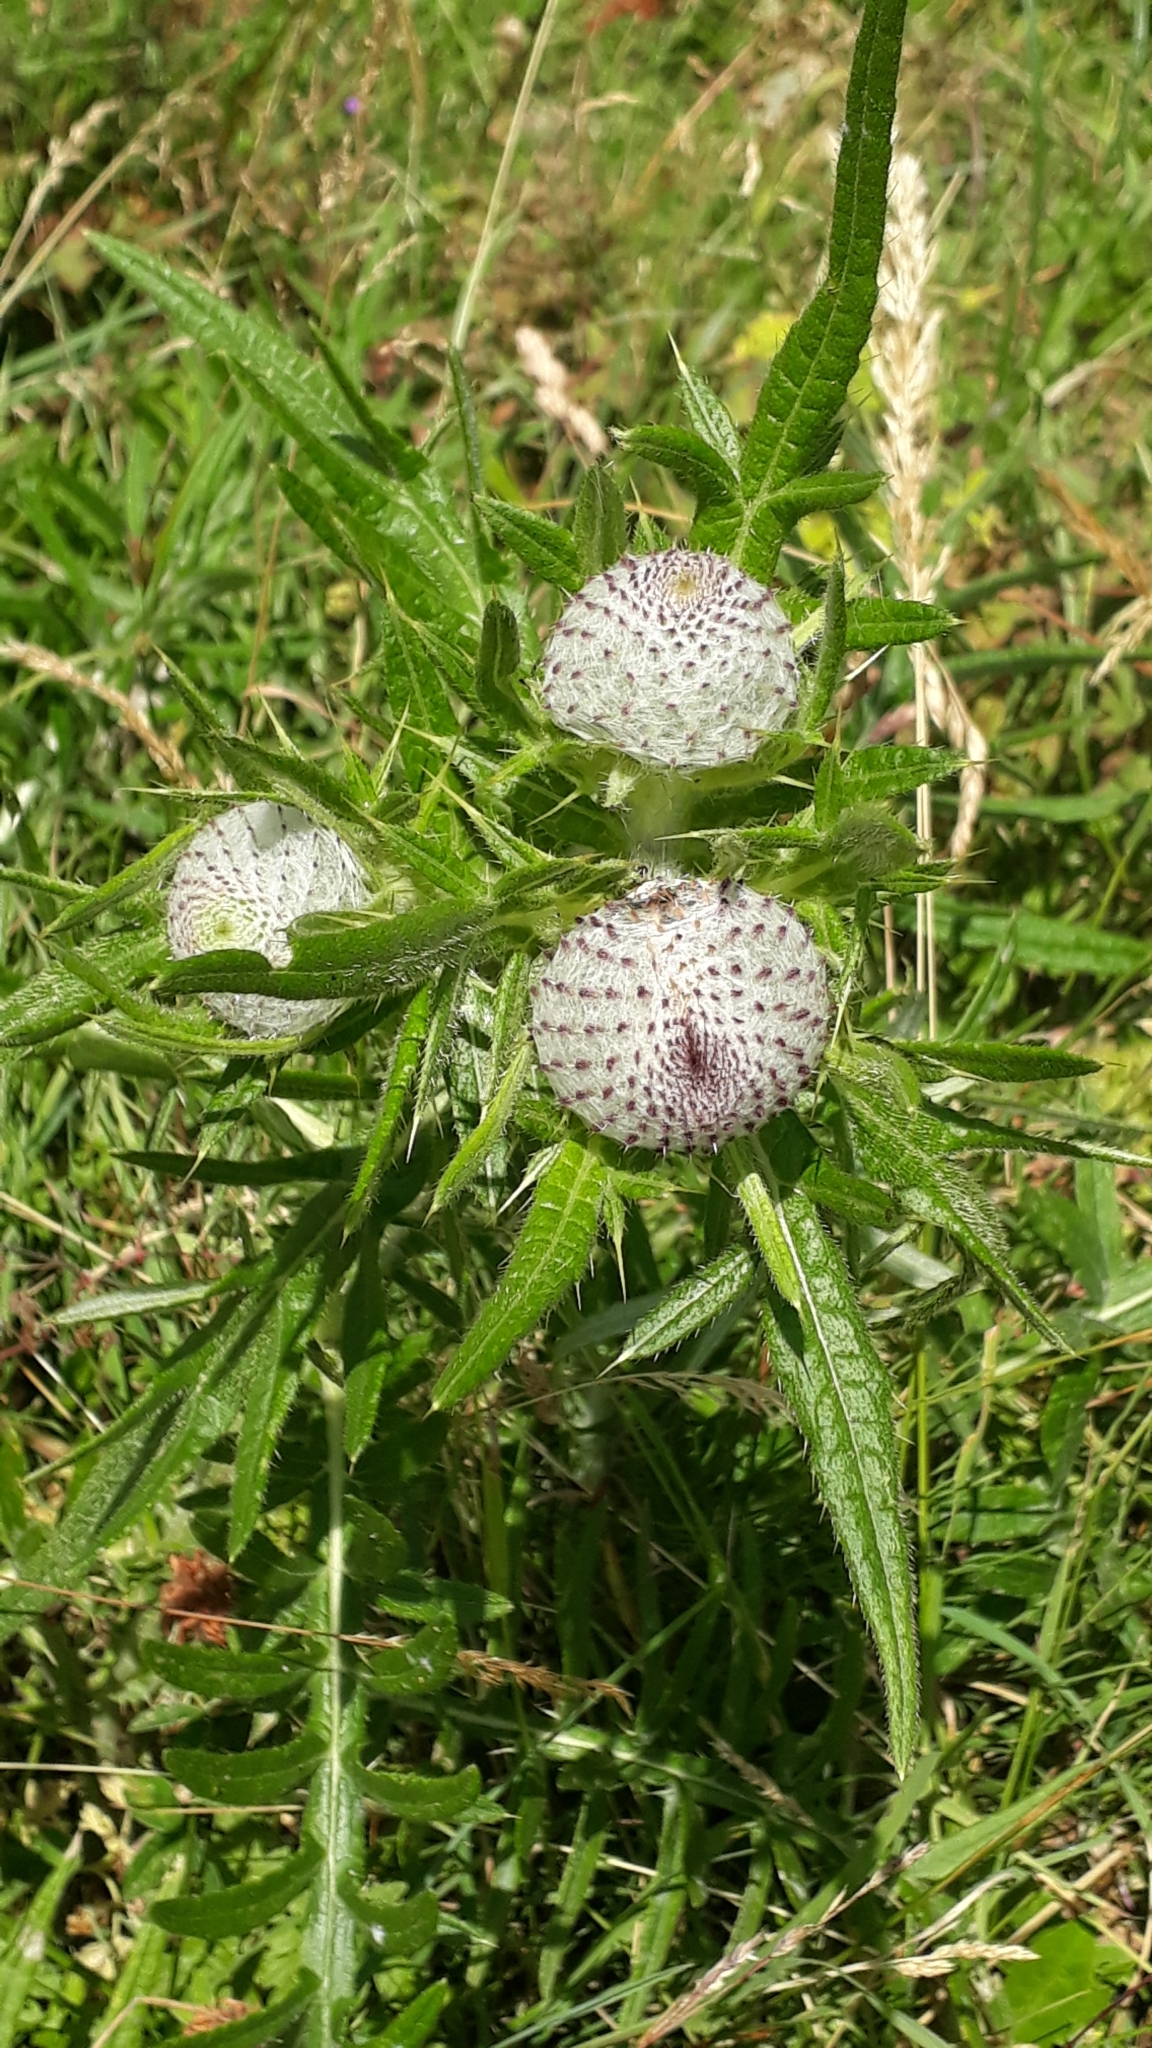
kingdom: Plantae
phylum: Tracheophyta
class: Magnoliopsida
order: Asterales
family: Asteraceae
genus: Lophiolepis
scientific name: Lophiolepis eriophora
